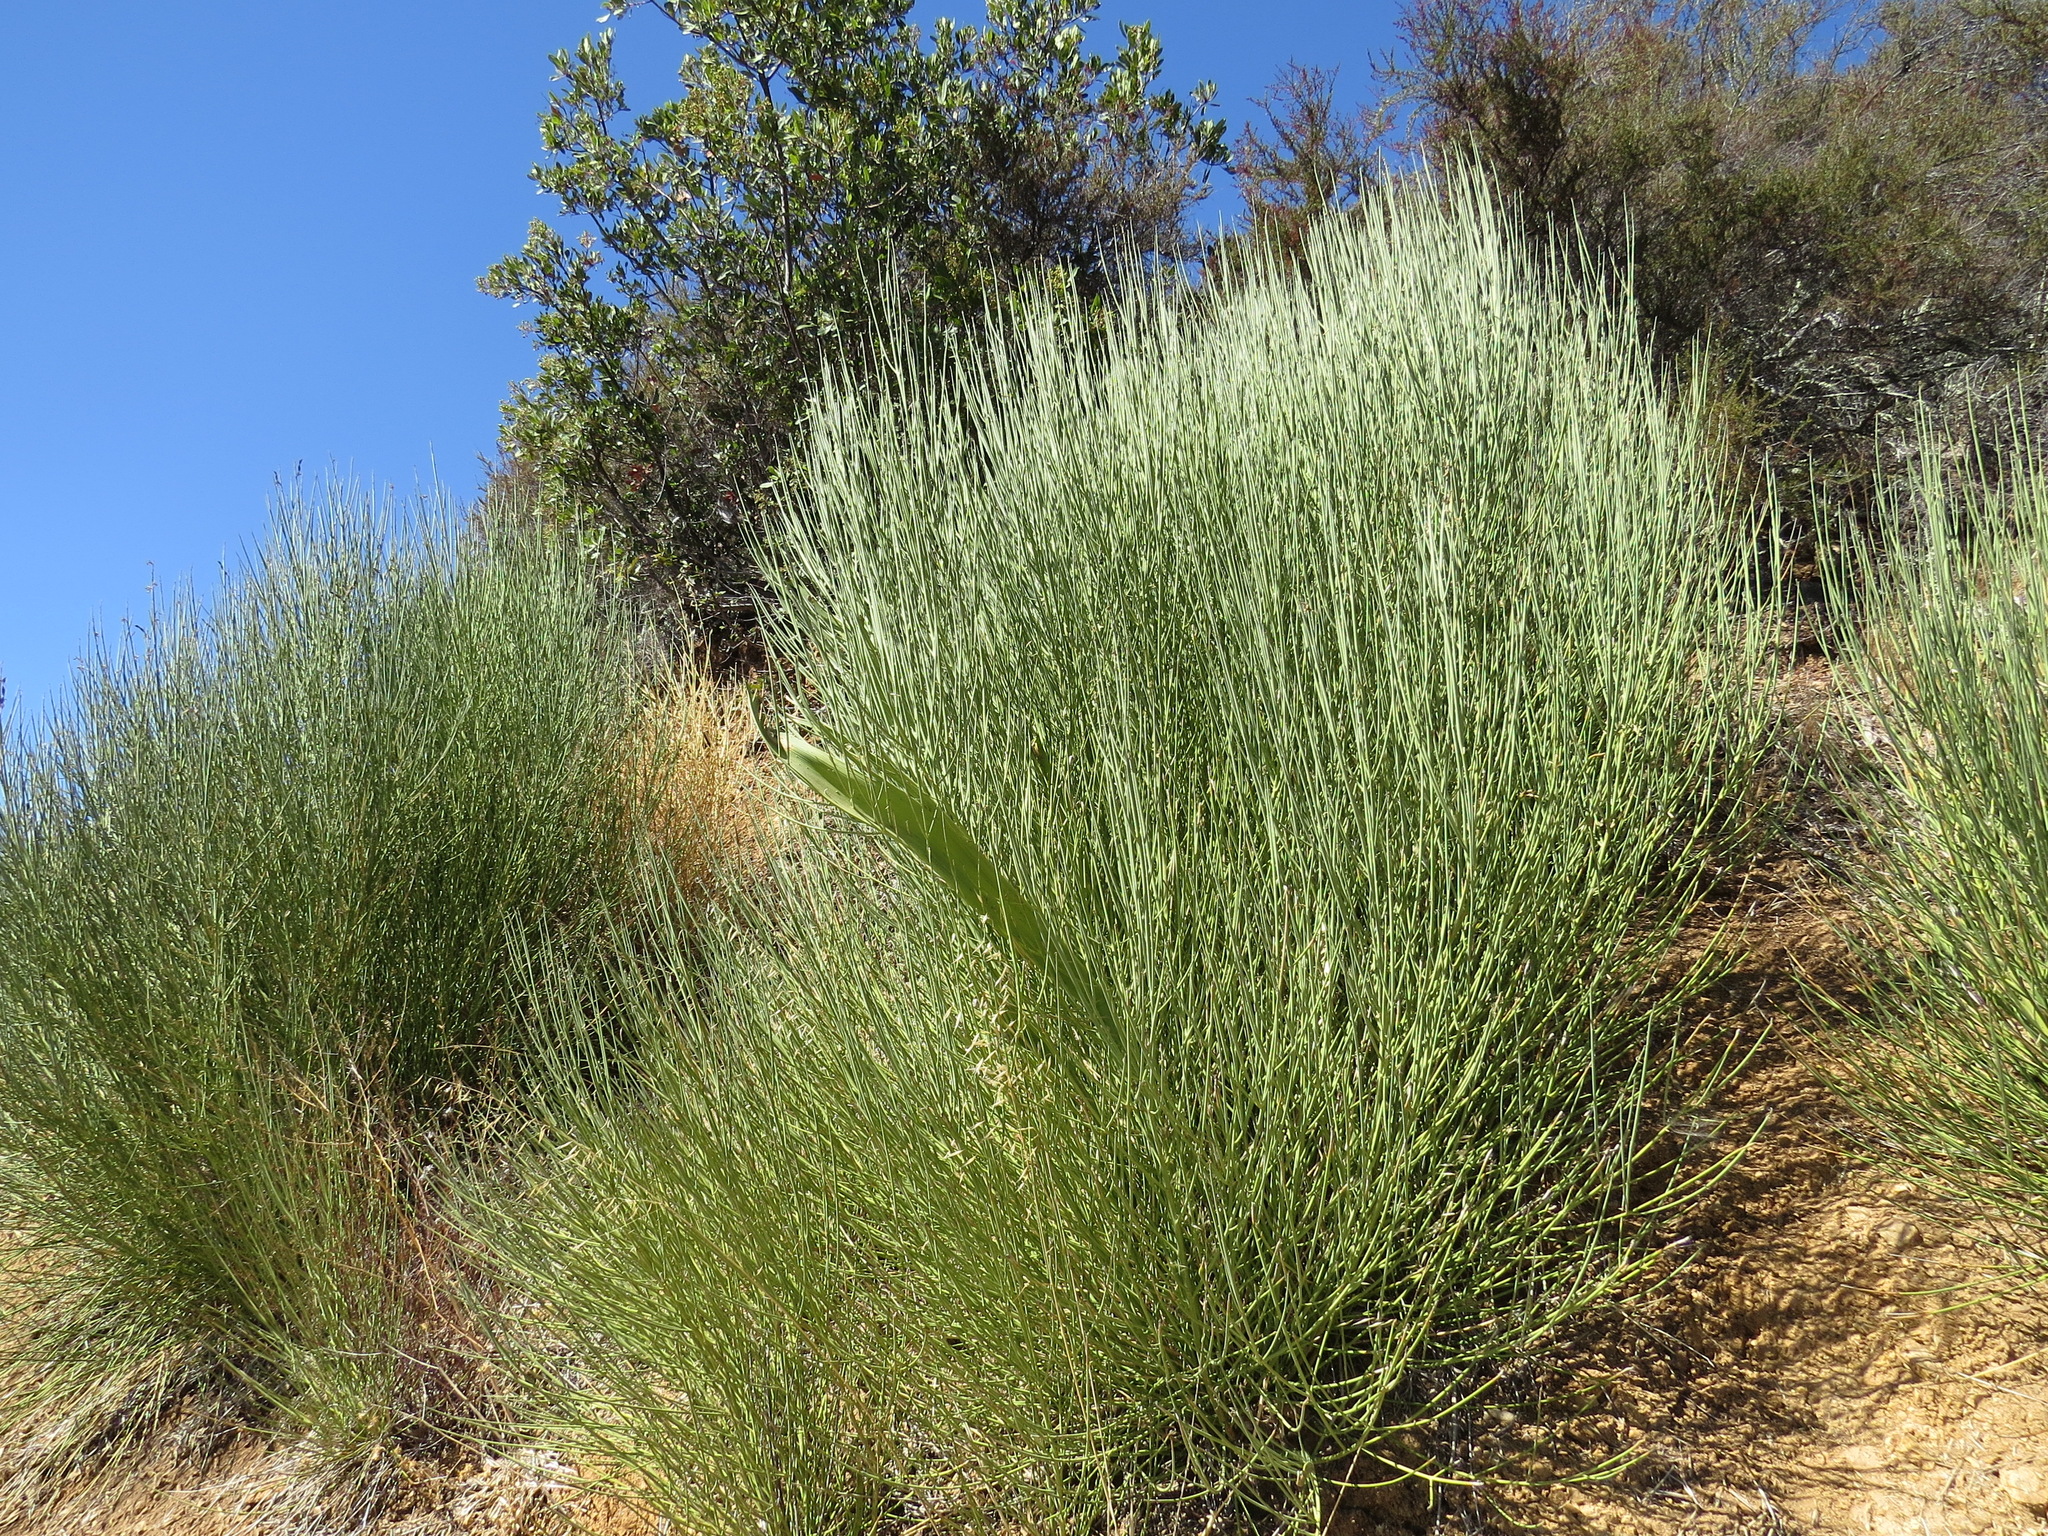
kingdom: Plantae
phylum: Tracheophyta
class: Magnoliopsida
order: Fabales
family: Fabaceae
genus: Spartium
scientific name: Spartium junceum
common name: Spanish broom
